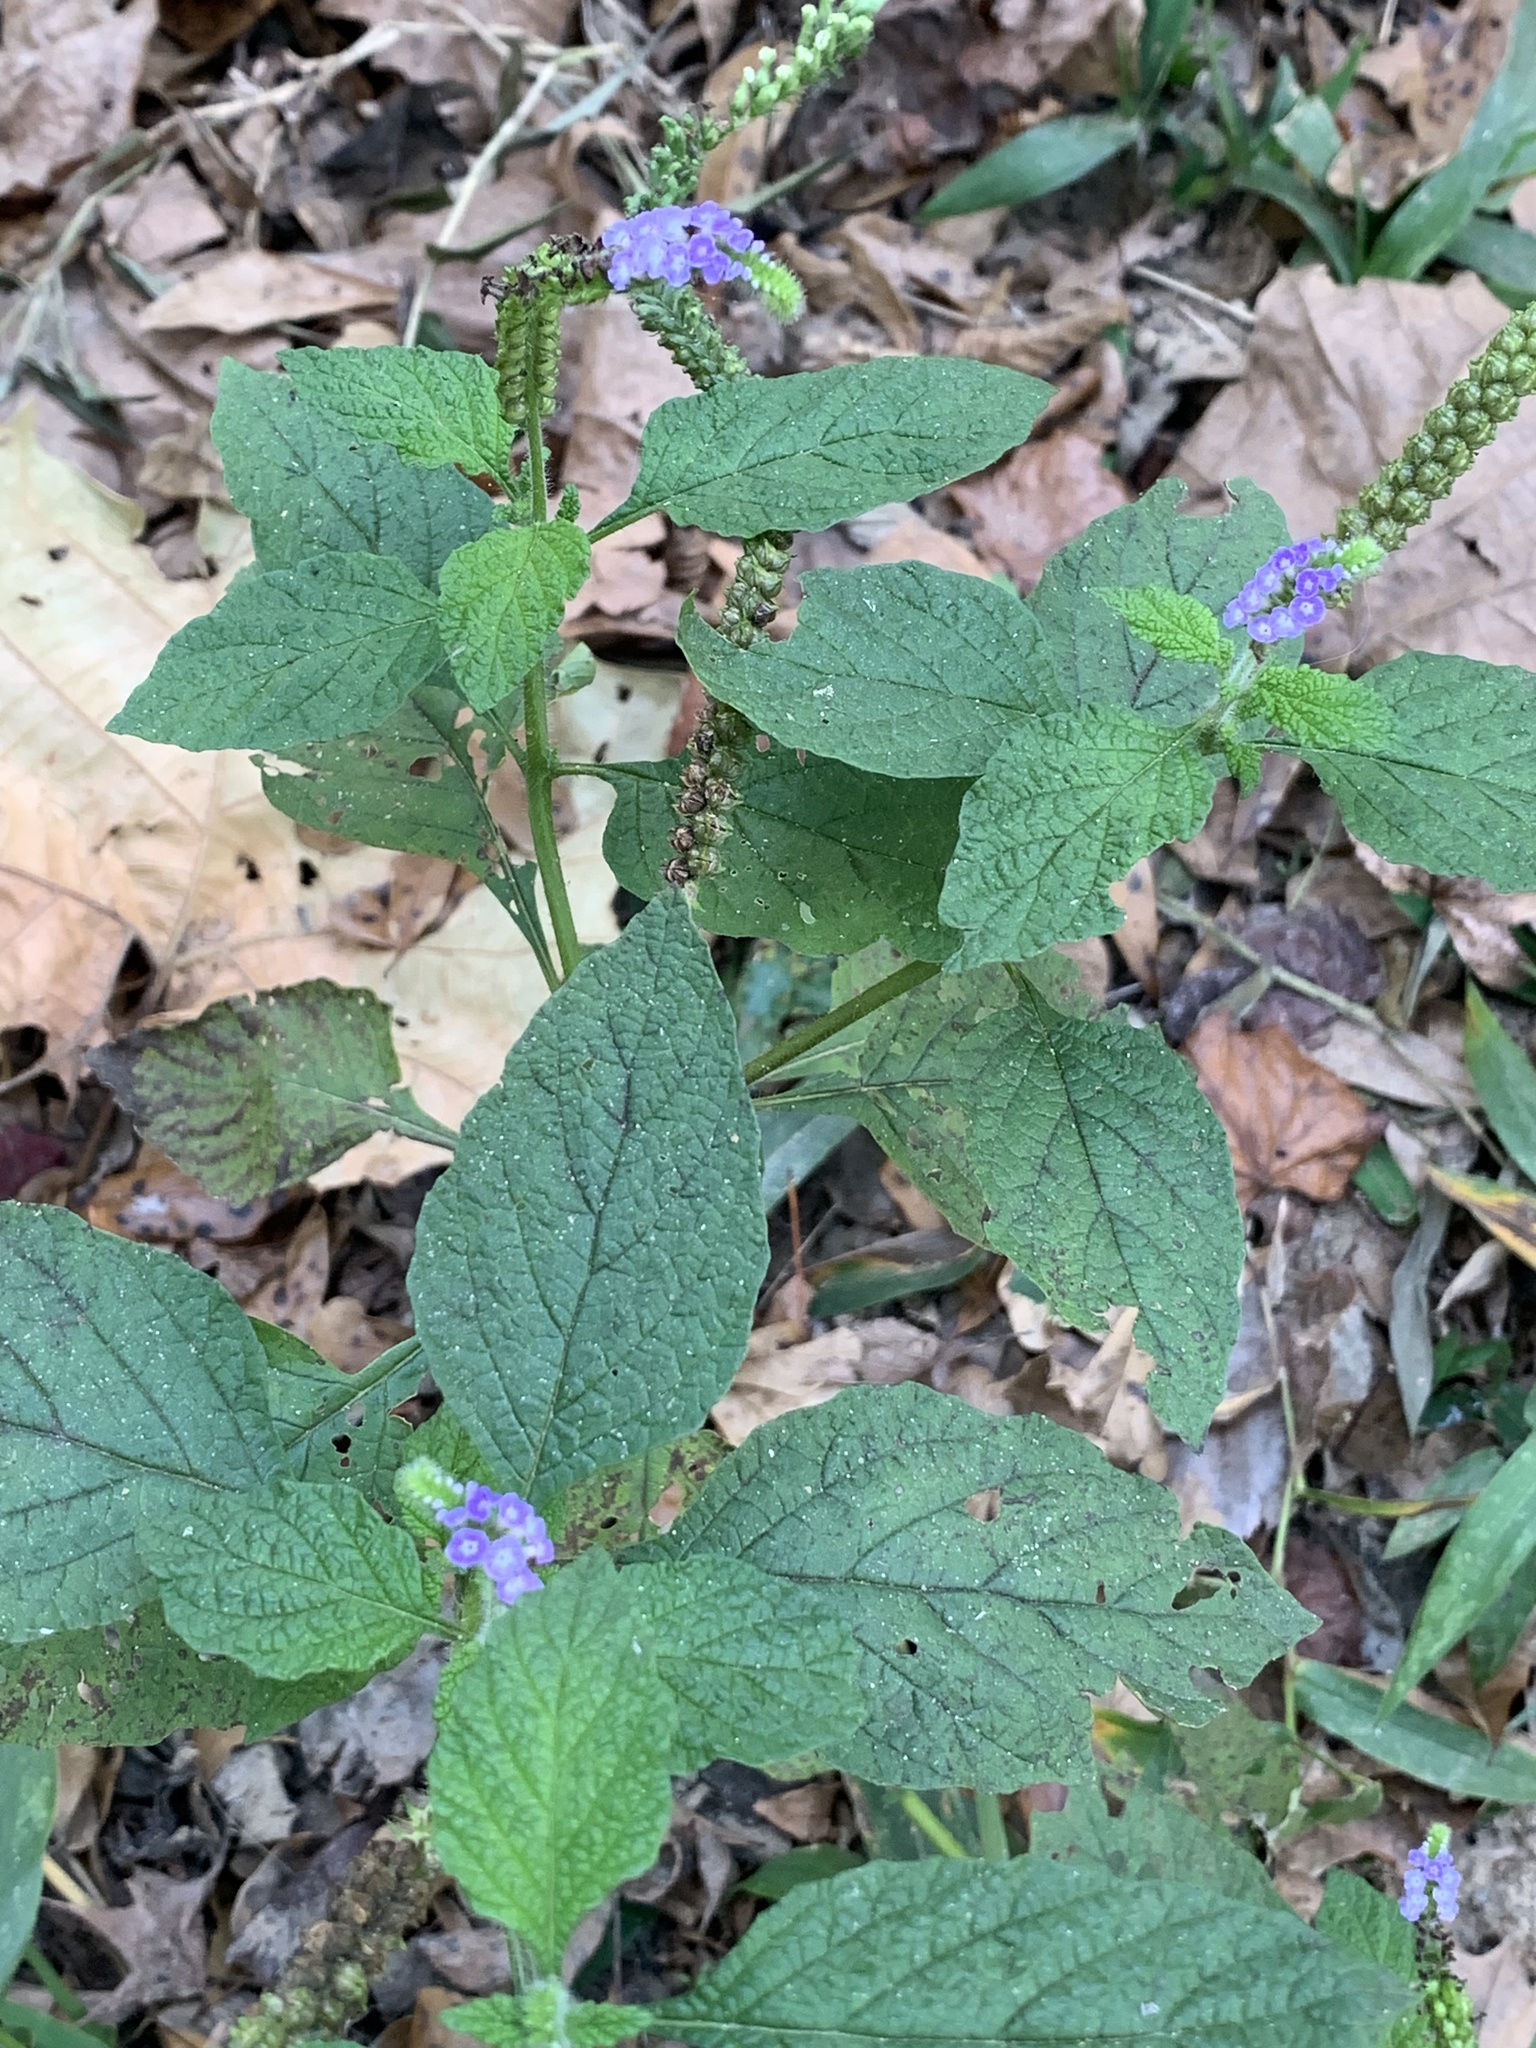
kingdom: Plantae
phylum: Tracheophyta
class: Magnoliopsida
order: Boraginales
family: Heliotropiaceae
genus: Heliotropium
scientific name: Heliotropium indicum
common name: Indian heliotrope
